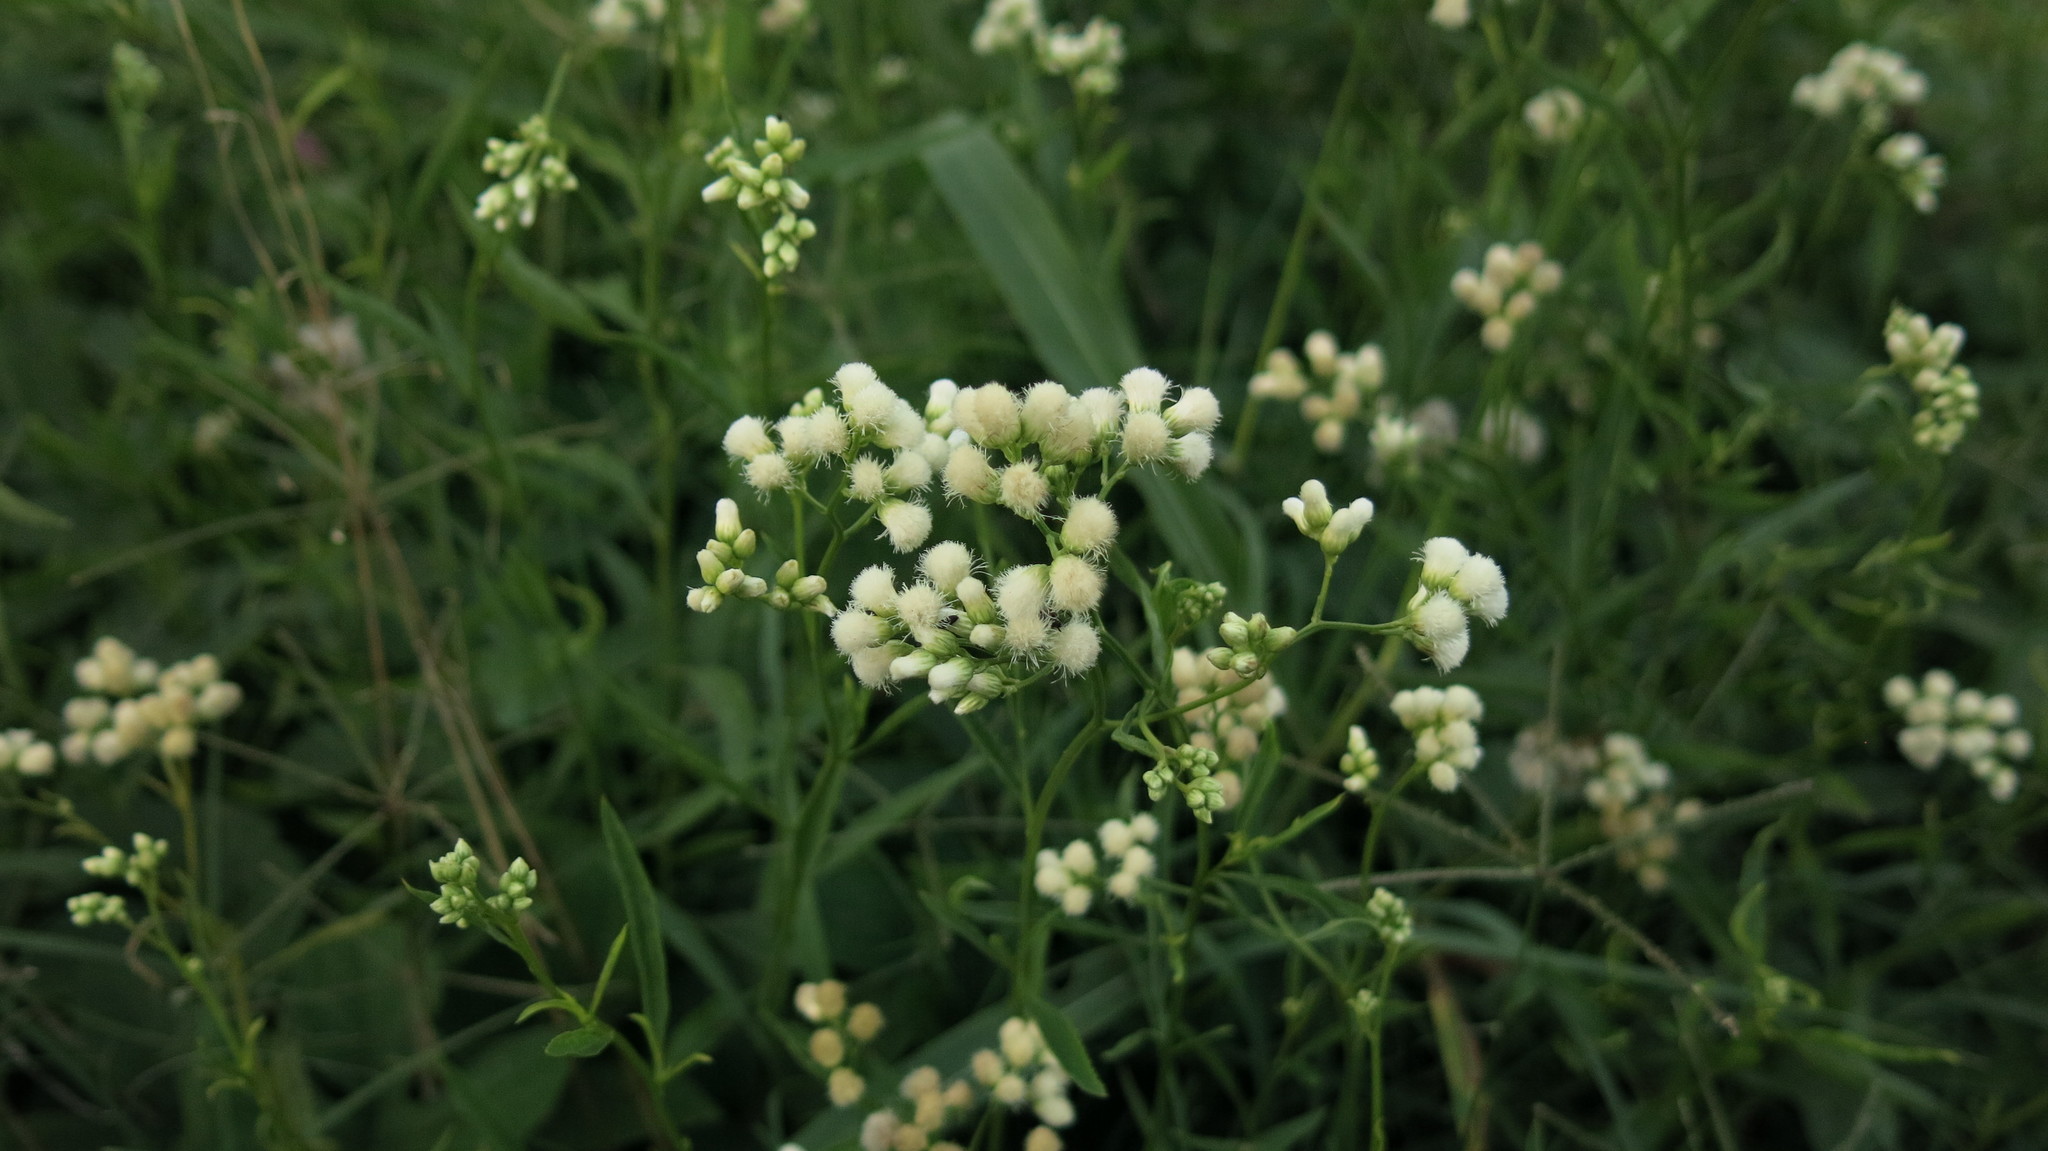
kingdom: Plantae
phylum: Tracheophyta
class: Magnoliopsida
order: Asterales
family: Asteraceae
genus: Baccharis
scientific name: Baccharis glutinosa
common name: Saltmarsh baccharis
